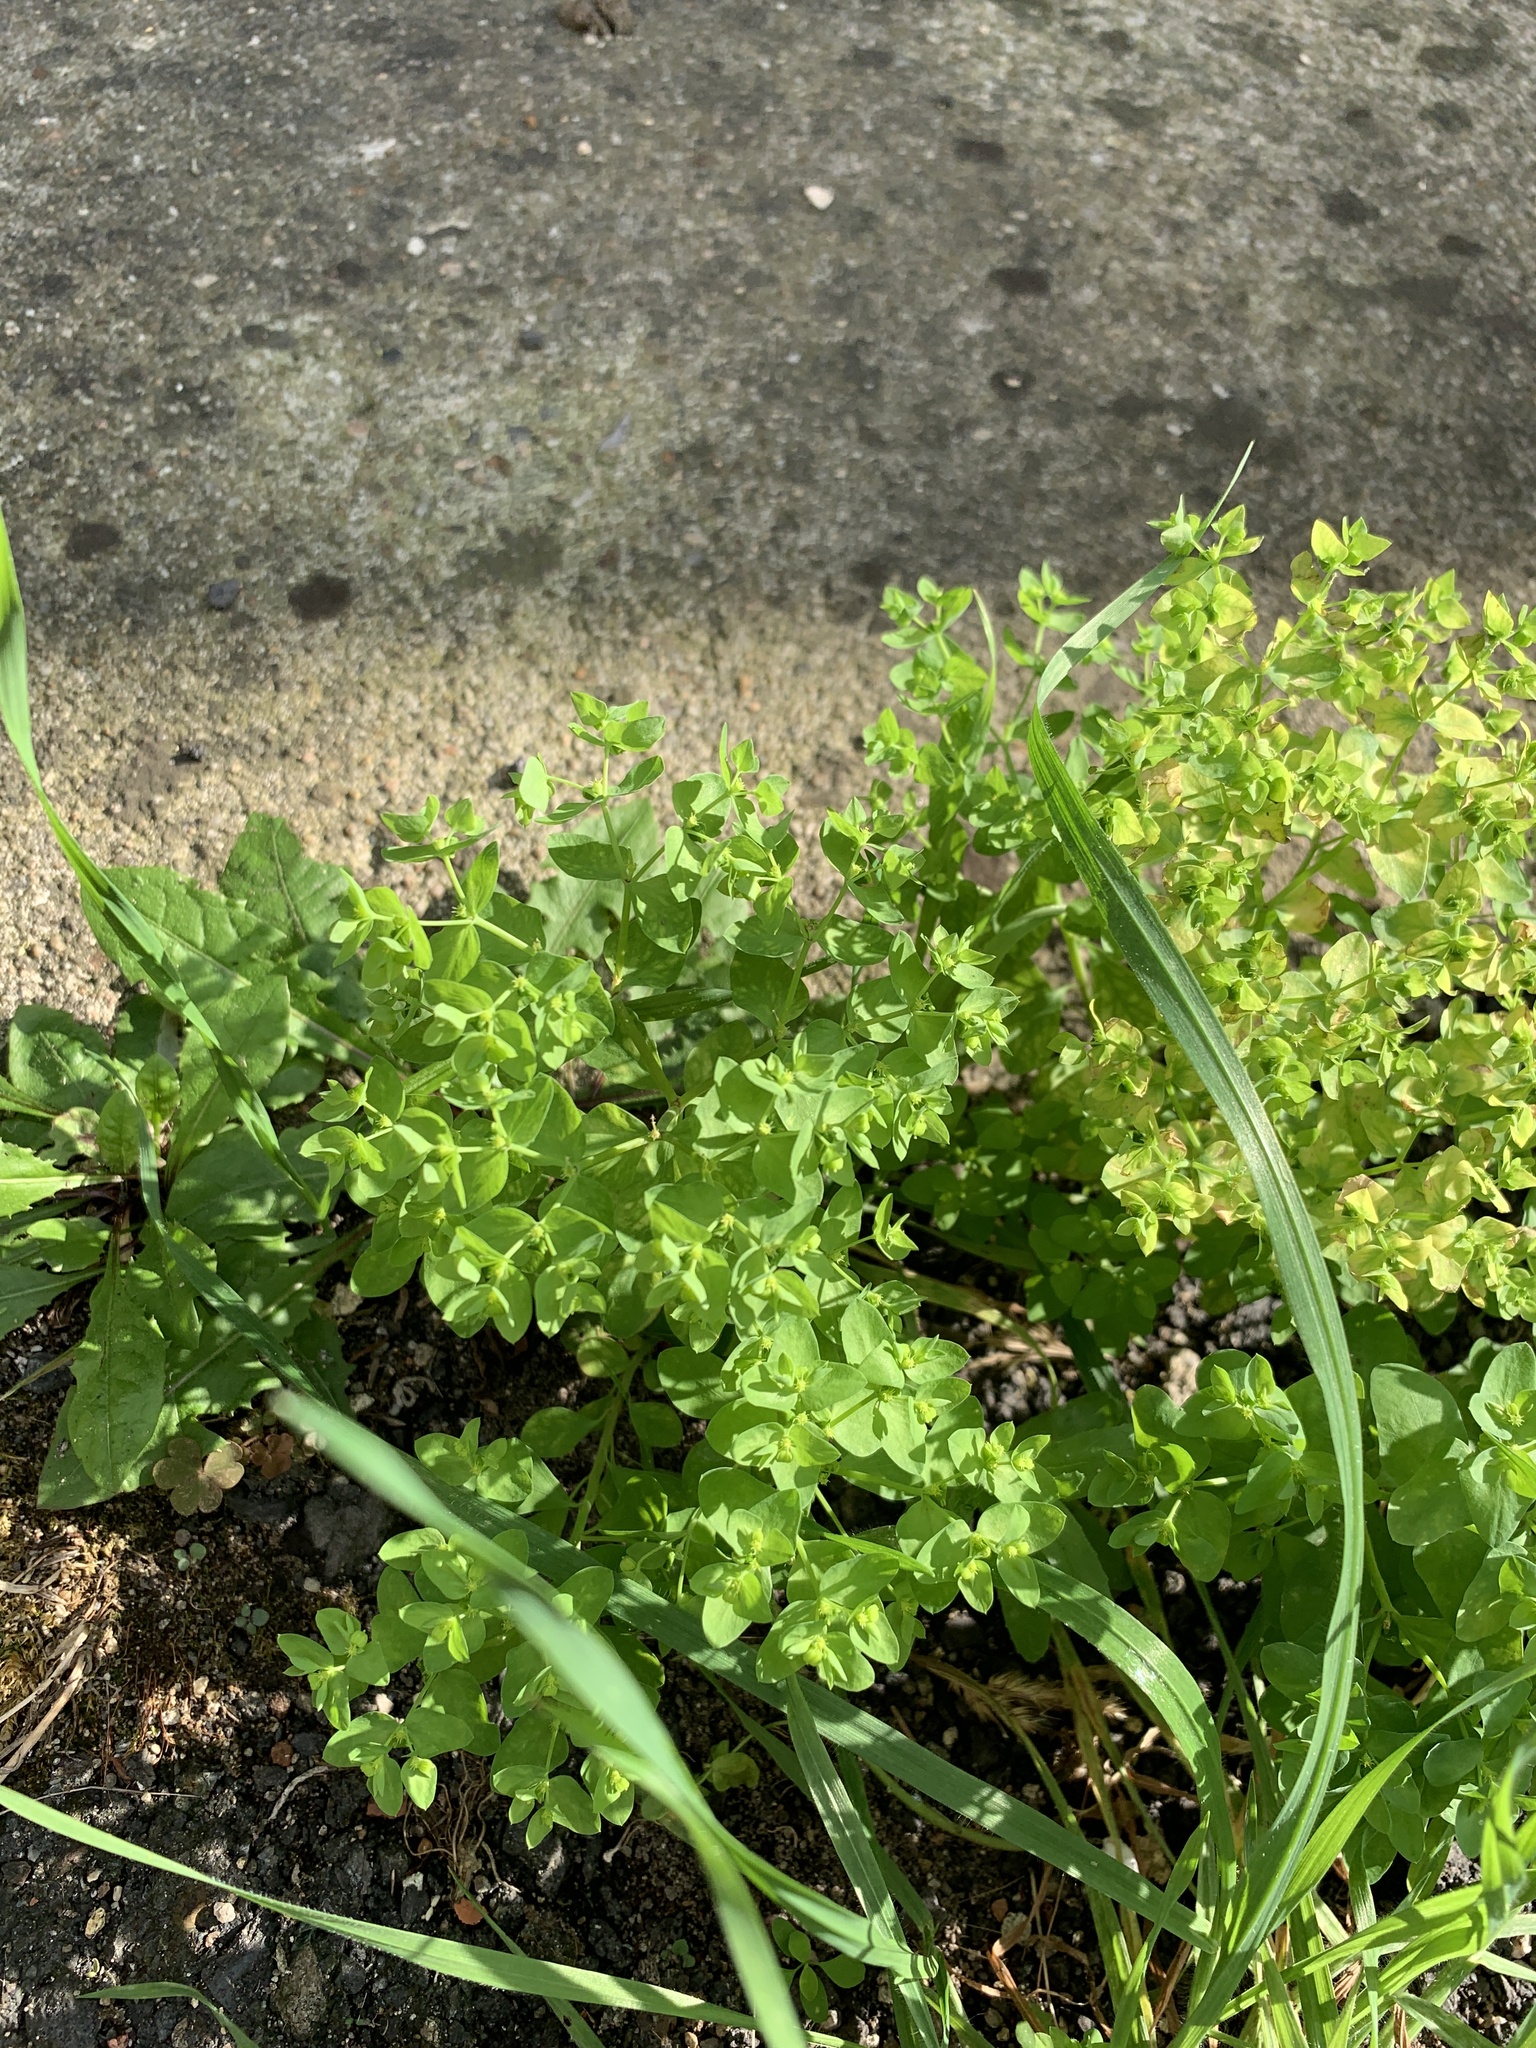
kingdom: Plantae
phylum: Tracheophyta
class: Magnoliopsida
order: Malpighiales
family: Euphorbiaceae
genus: Euphorbia
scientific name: Euphorbia peplus
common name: Petty spurge
